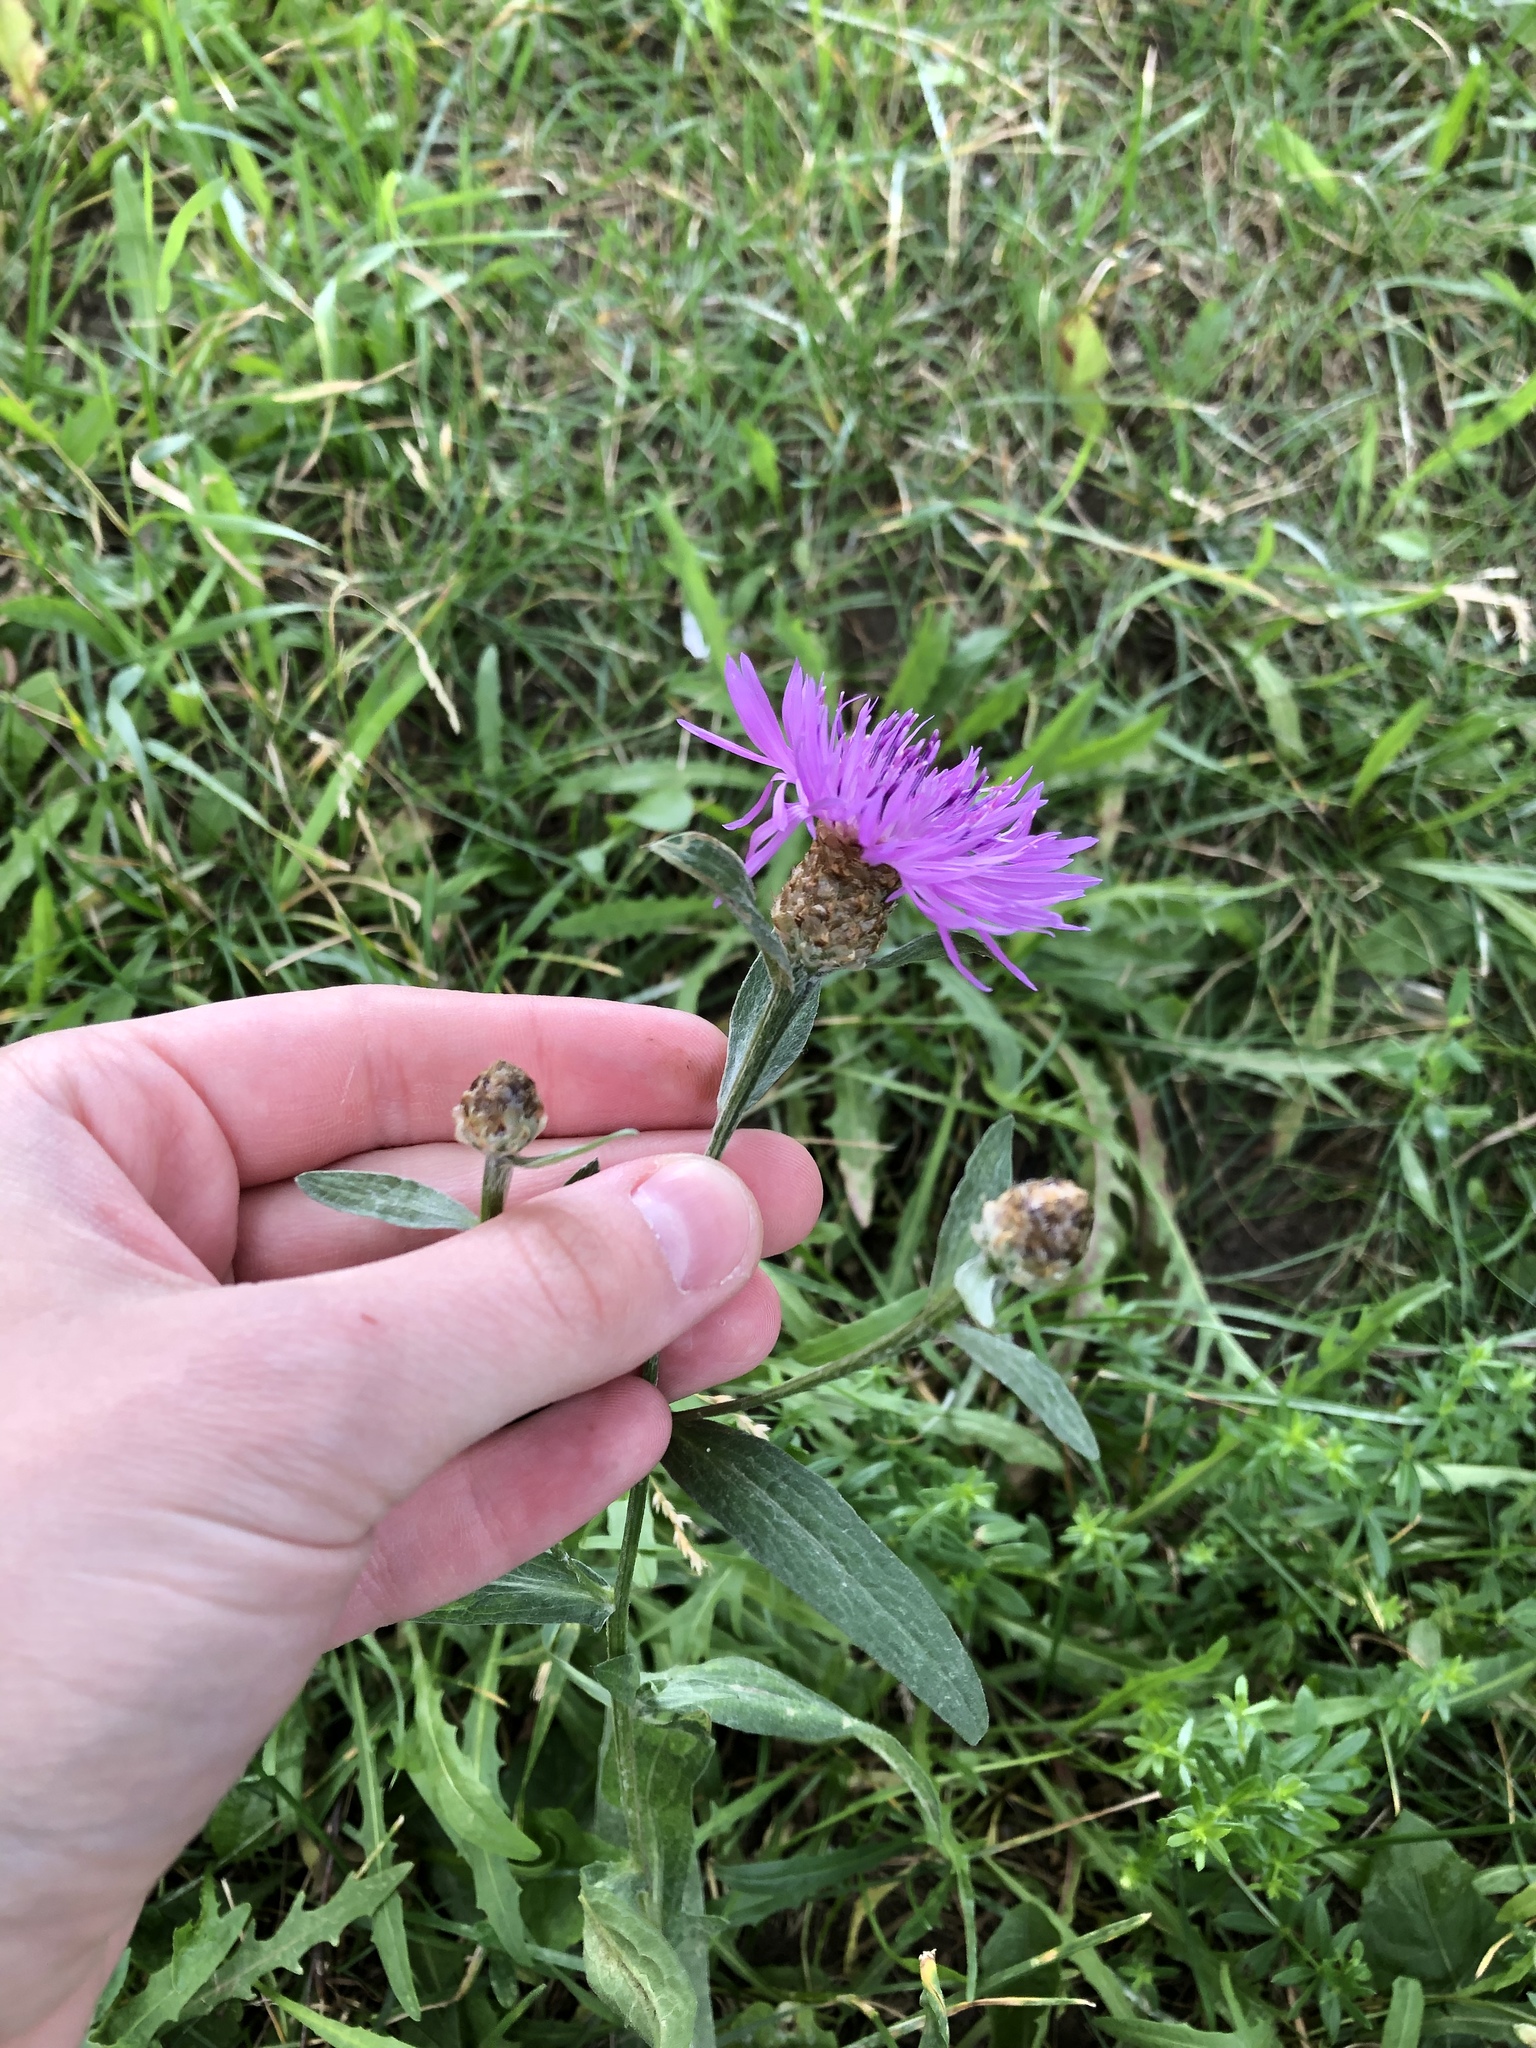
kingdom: Plantae
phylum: Tracheophyta
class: Magnoliopsida
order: Asterales
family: Asteraceae
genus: Centaurea
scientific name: Centaurea jacea
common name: Brown knapweed
